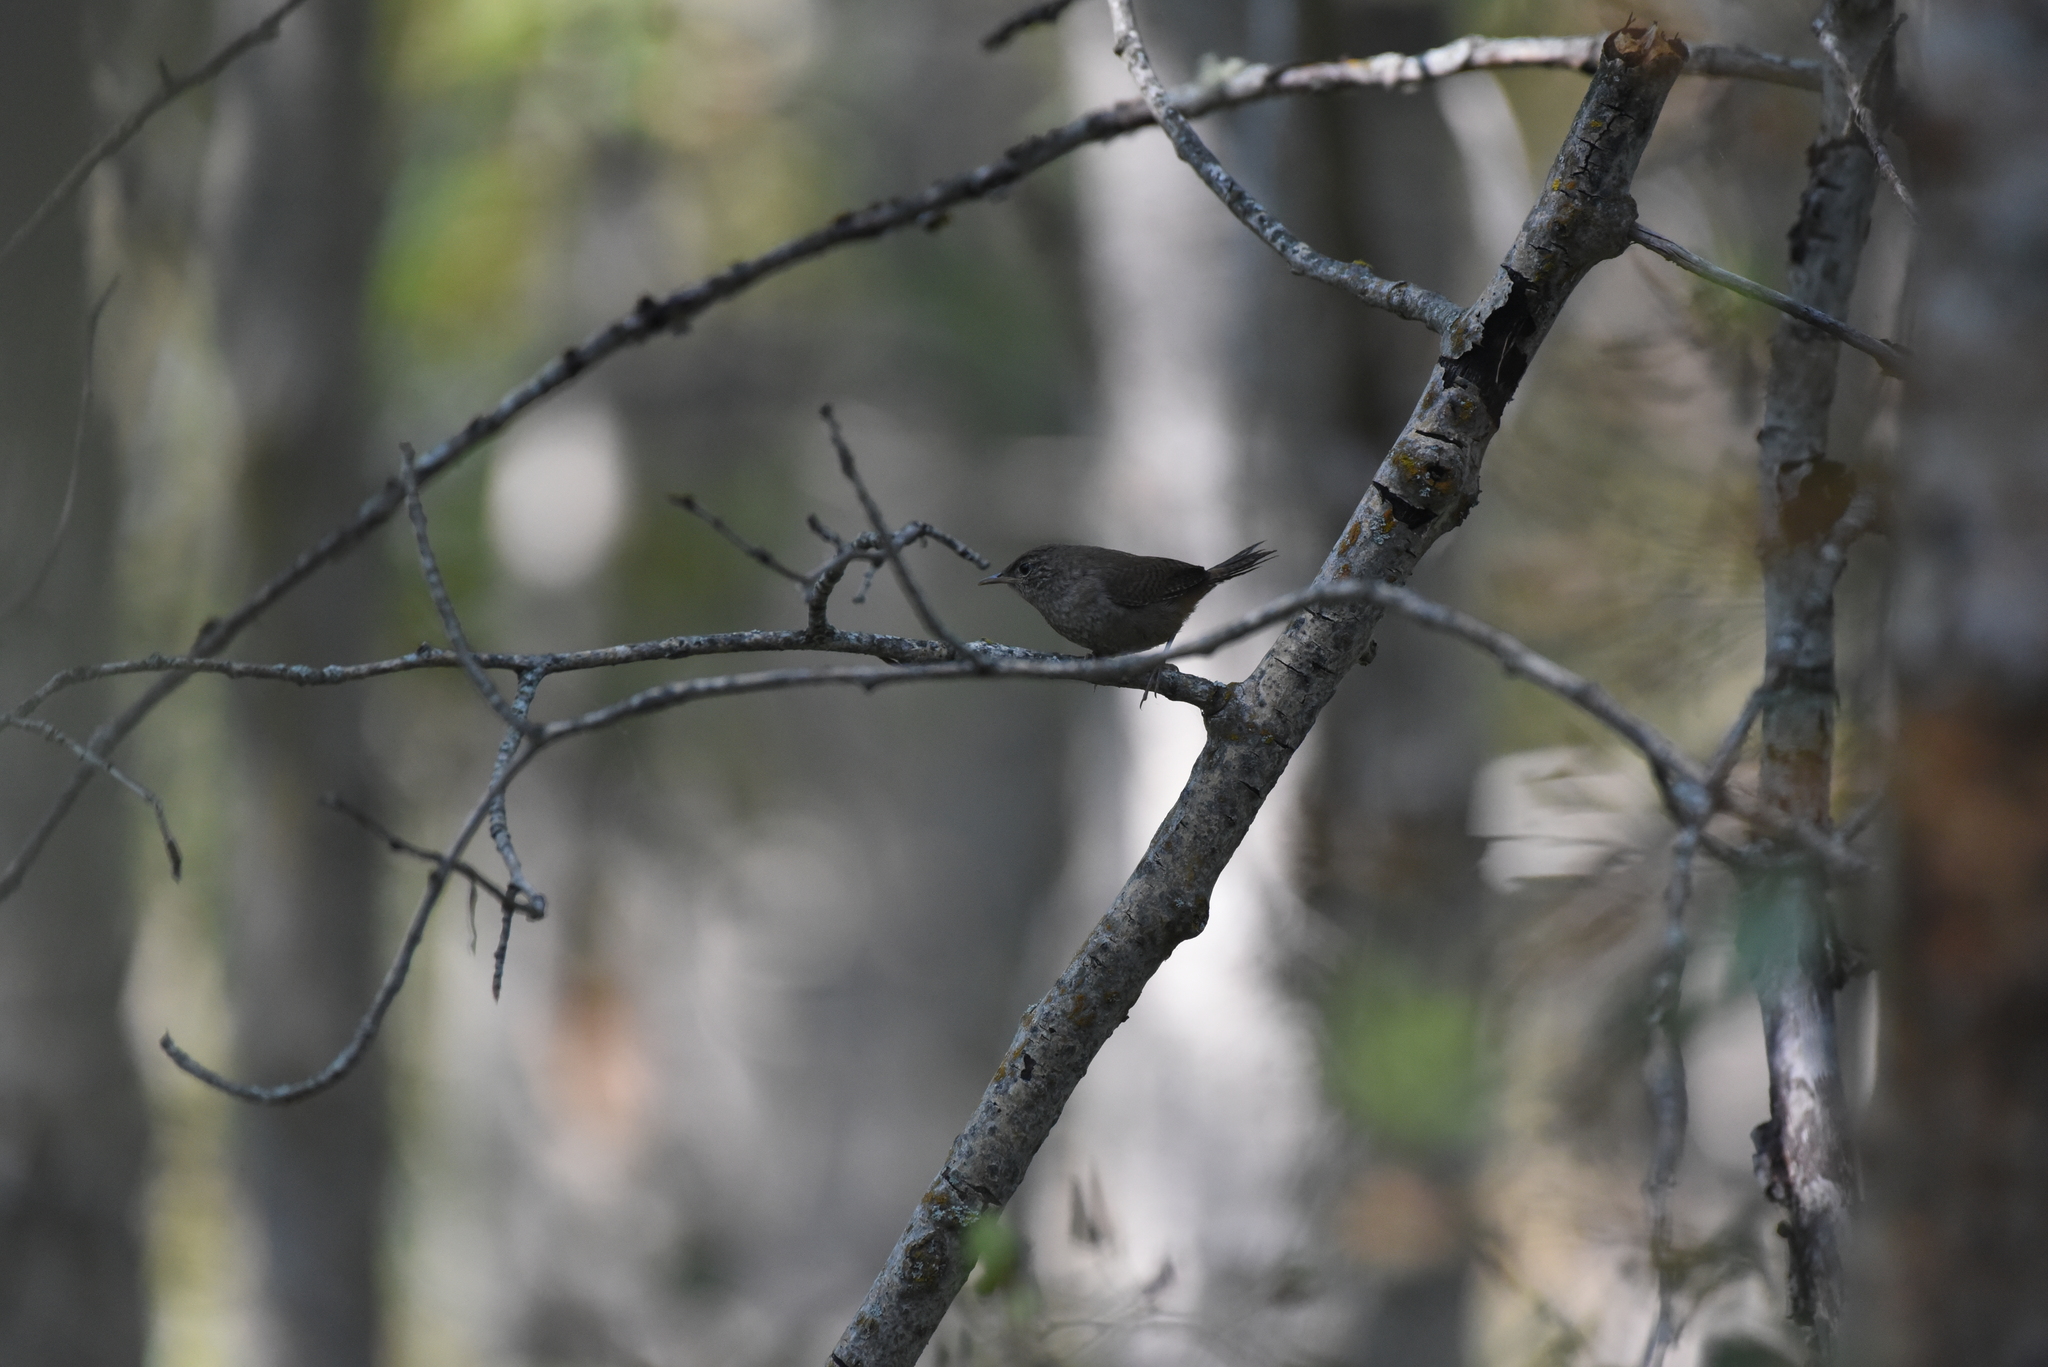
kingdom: Animalia
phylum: Chordata
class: Aves
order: Passeriformes
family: Troglodytidae
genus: Troglodytes
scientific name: Troglodytes aedon
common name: House wren
